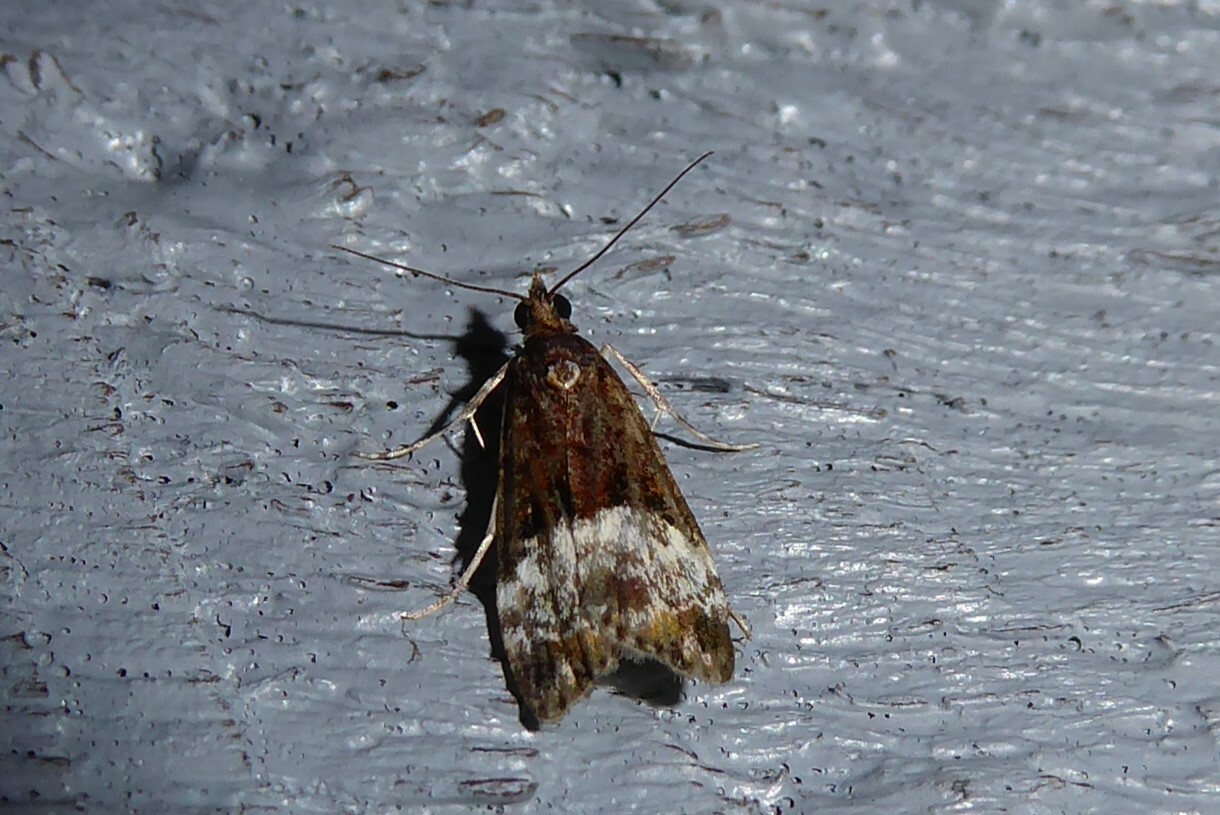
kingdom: Animalia
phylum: Arthropoda
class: Insecta
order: Lepidoptera
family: Crambidae
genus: Scoparia
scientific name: Scoparia minusculalis
